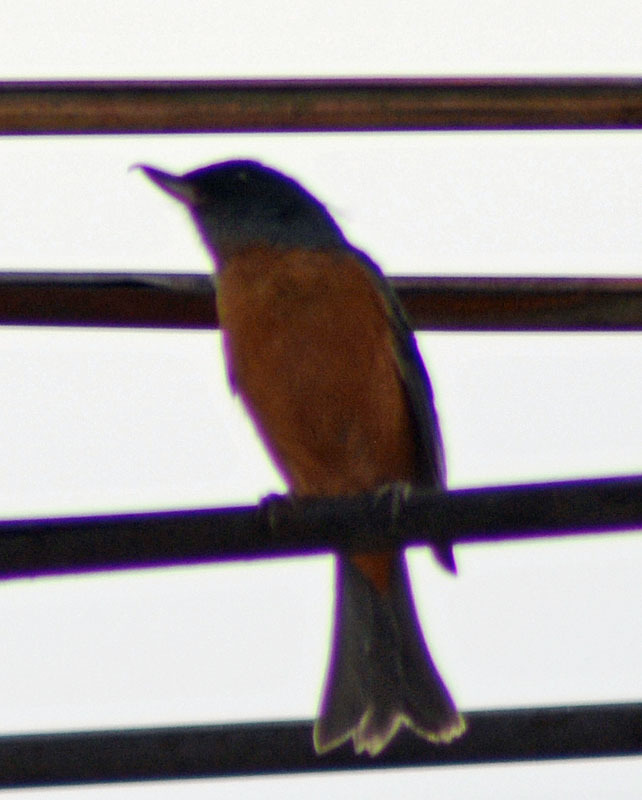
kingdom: Animalia
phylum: Chordata
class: Aves
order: Passeriformes
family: Thraupidae
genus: Diglossa
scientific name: Diglossa baritula
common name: Cinnamon-bellied flowerpiercer
